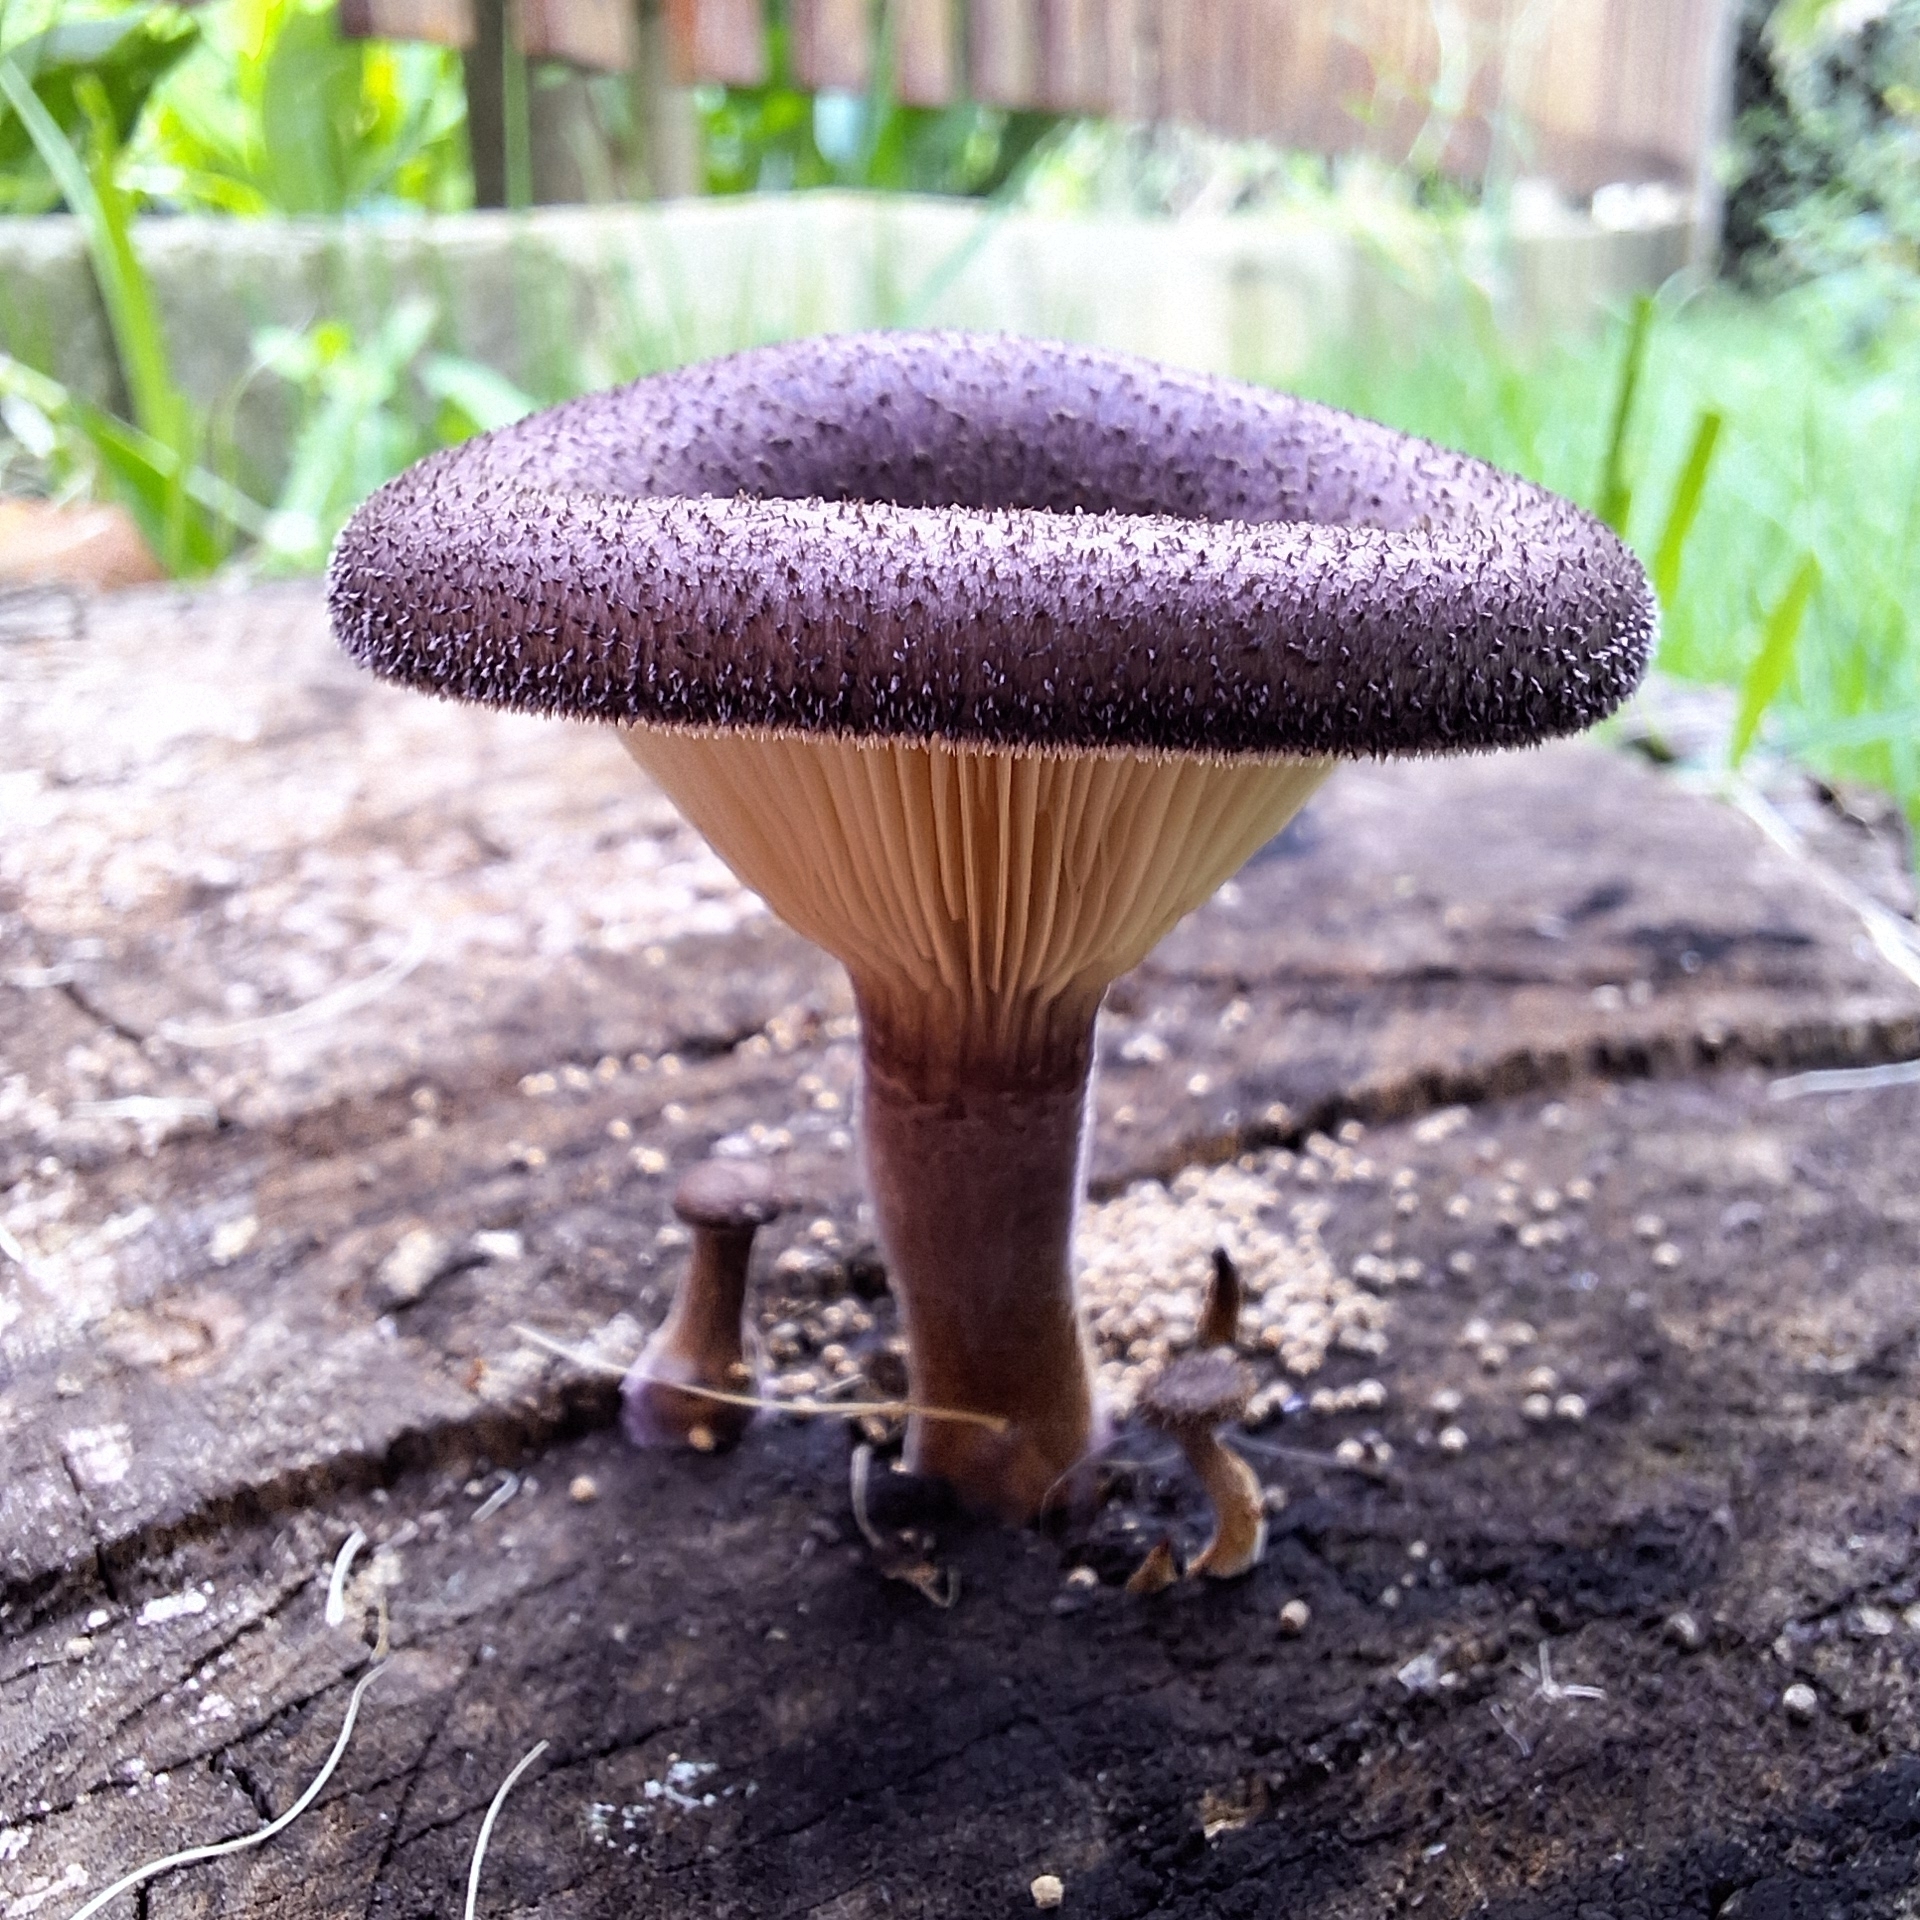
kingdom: Fungi
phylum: Basidiomycota
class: Agaricomycetes
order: Polyporales
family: Panaceae
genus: Panus
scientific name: Panus strigellus
